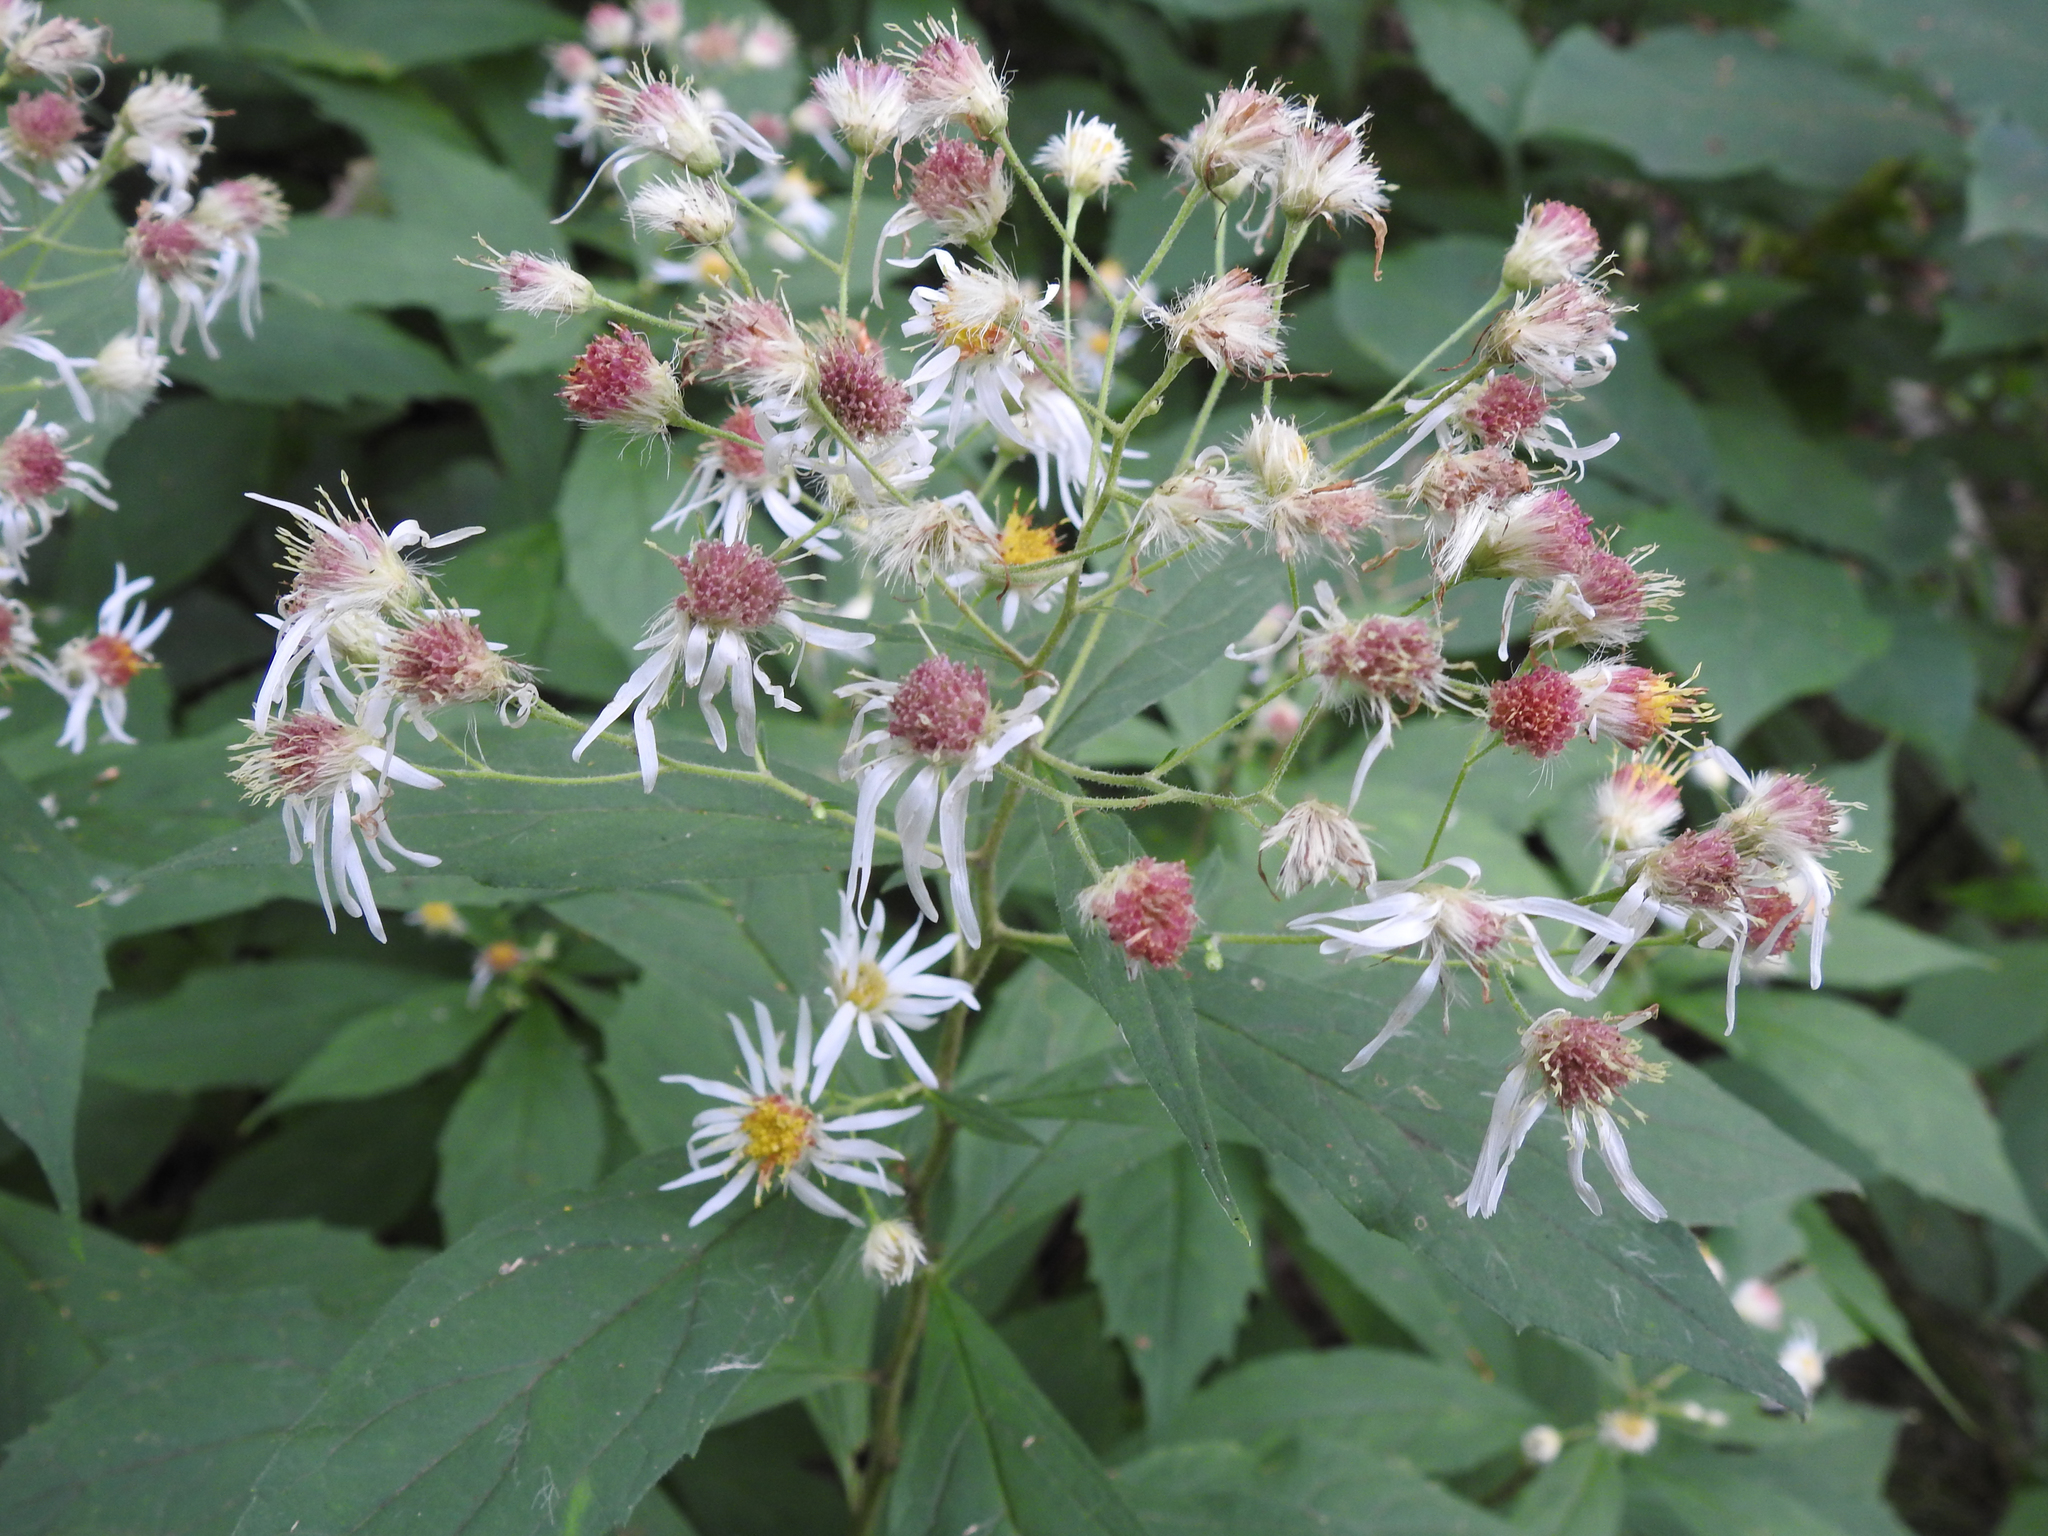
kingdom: Plantae
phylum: Tracheophyta
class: Magnoliopsida
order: Asterales
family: Asteraceae
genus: Oclemena
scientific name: Oclemena acuminata
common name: Mountain aster
